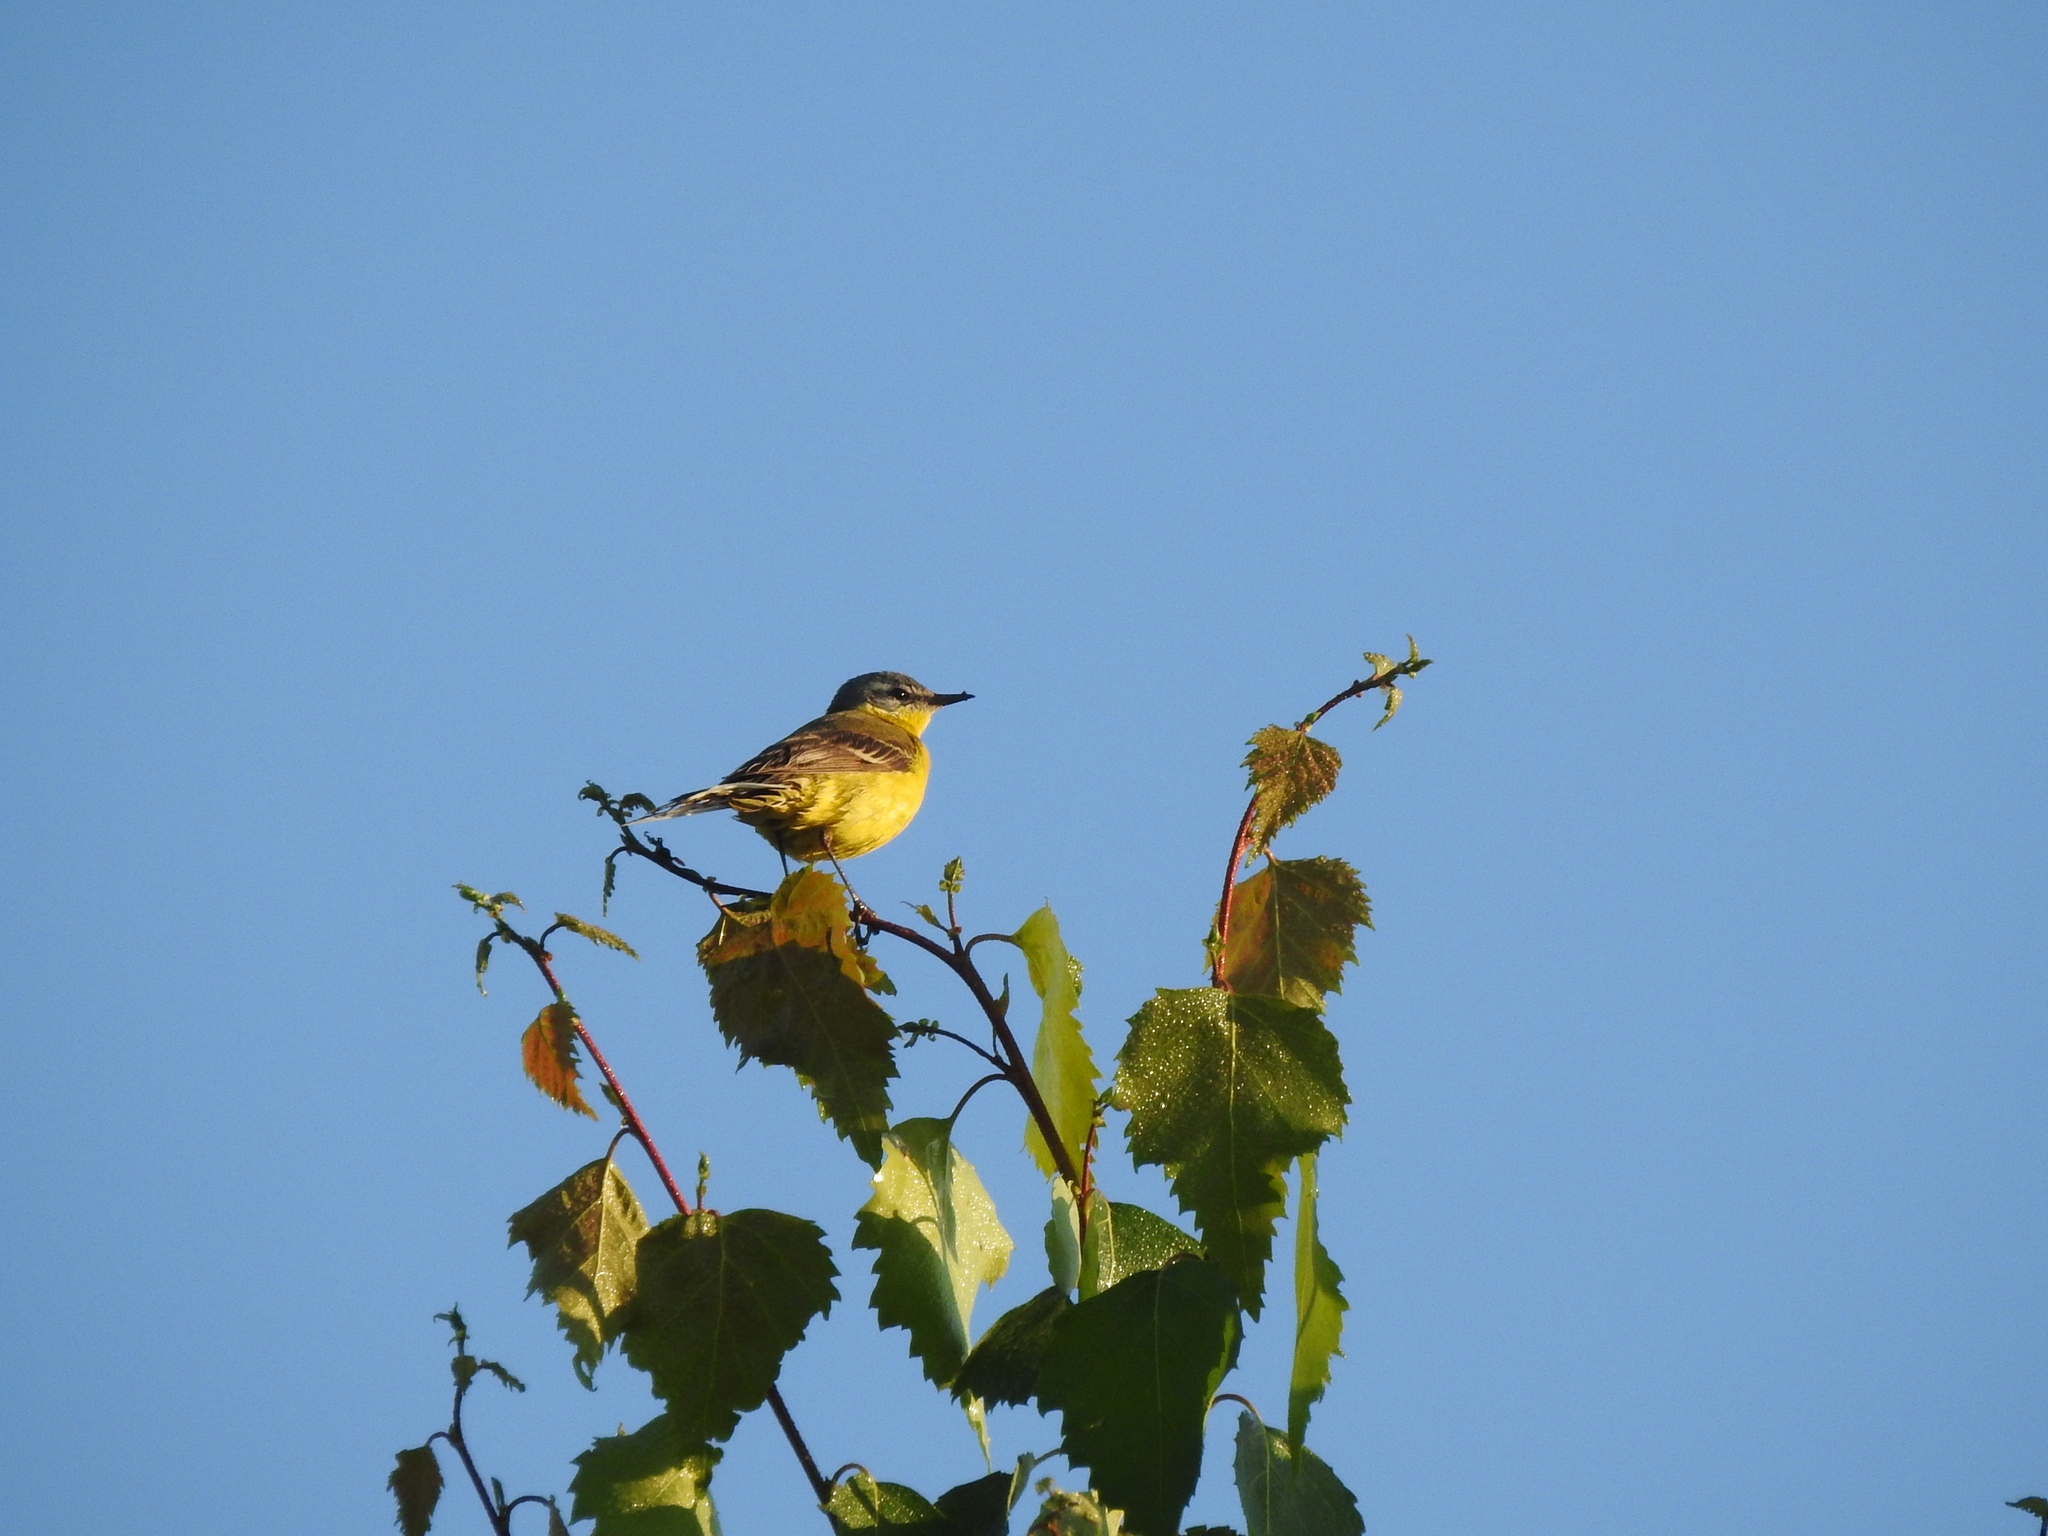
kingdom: Animalia
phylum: Chordata
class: Aves
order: Passeriformes
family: Motacillidae
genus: Motacilla
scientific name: Motacilla flava
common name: Western yellow wagtail
